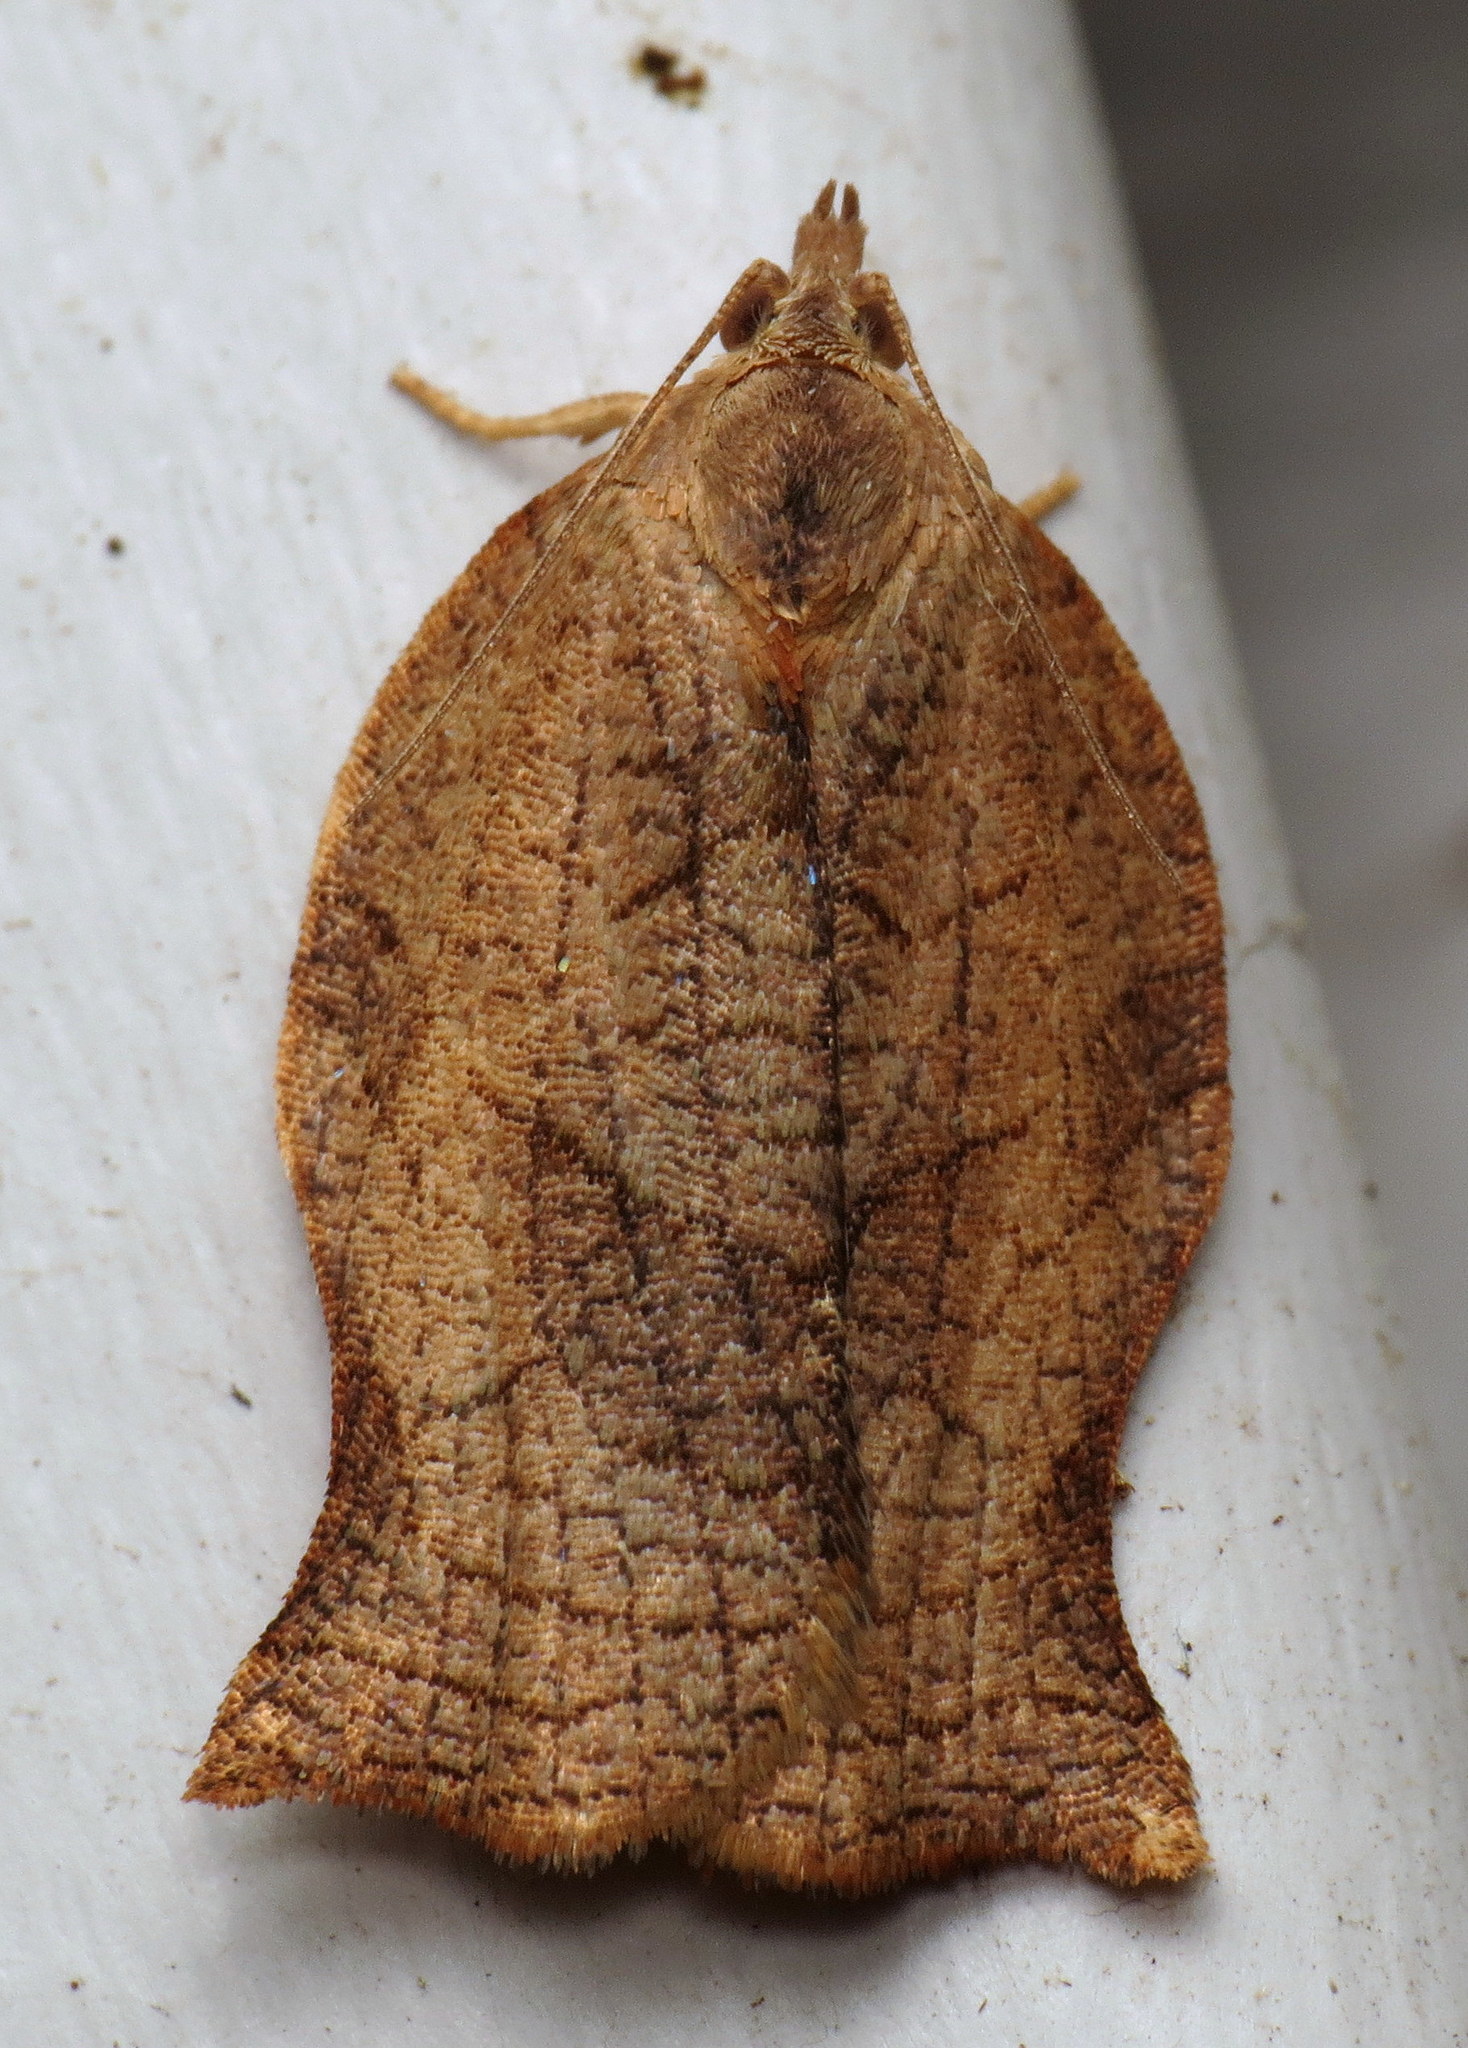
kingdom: Animalia
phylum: Arthropoda
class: Insecta
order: Lepidoptera
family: Tortricidae
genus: Archips
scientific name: Archips purpurana
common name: Omnivorous leafroller
